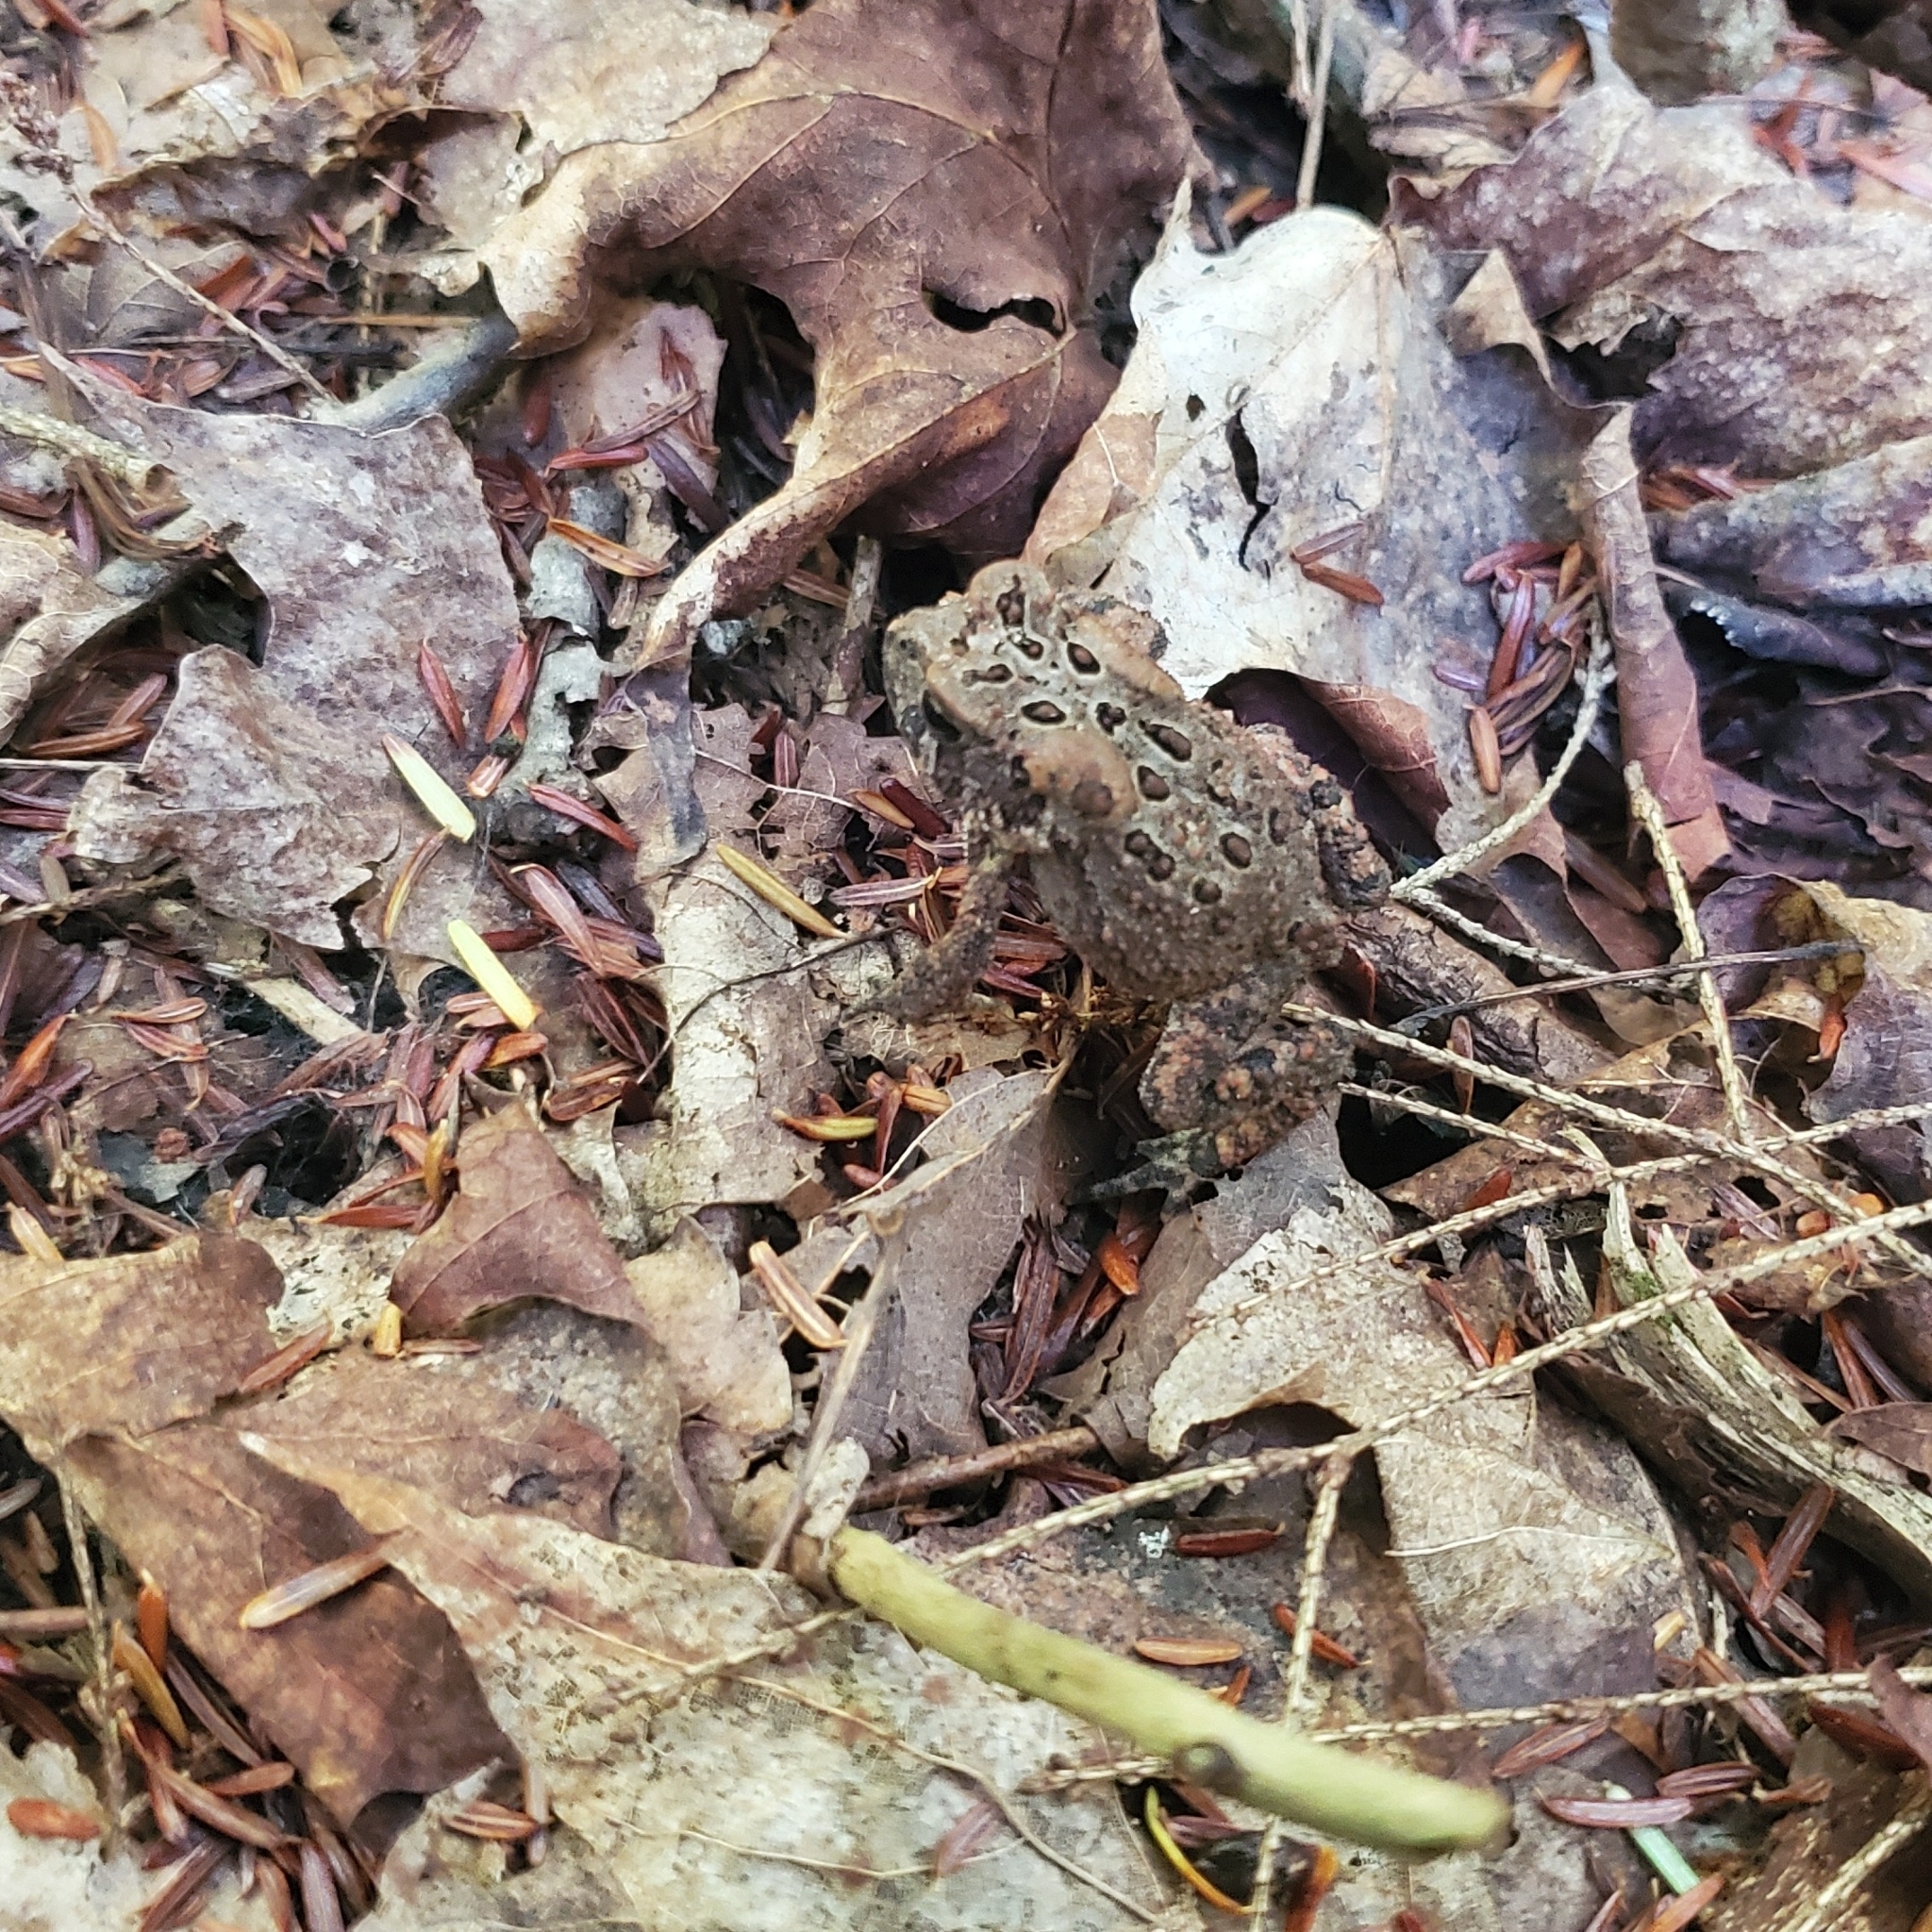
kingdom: Animalia
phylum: Chordata
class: Amphibia
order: Anura
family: Bufonidae
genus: Anaxyrus
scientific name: Anaxyrus americanus
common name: American toad
